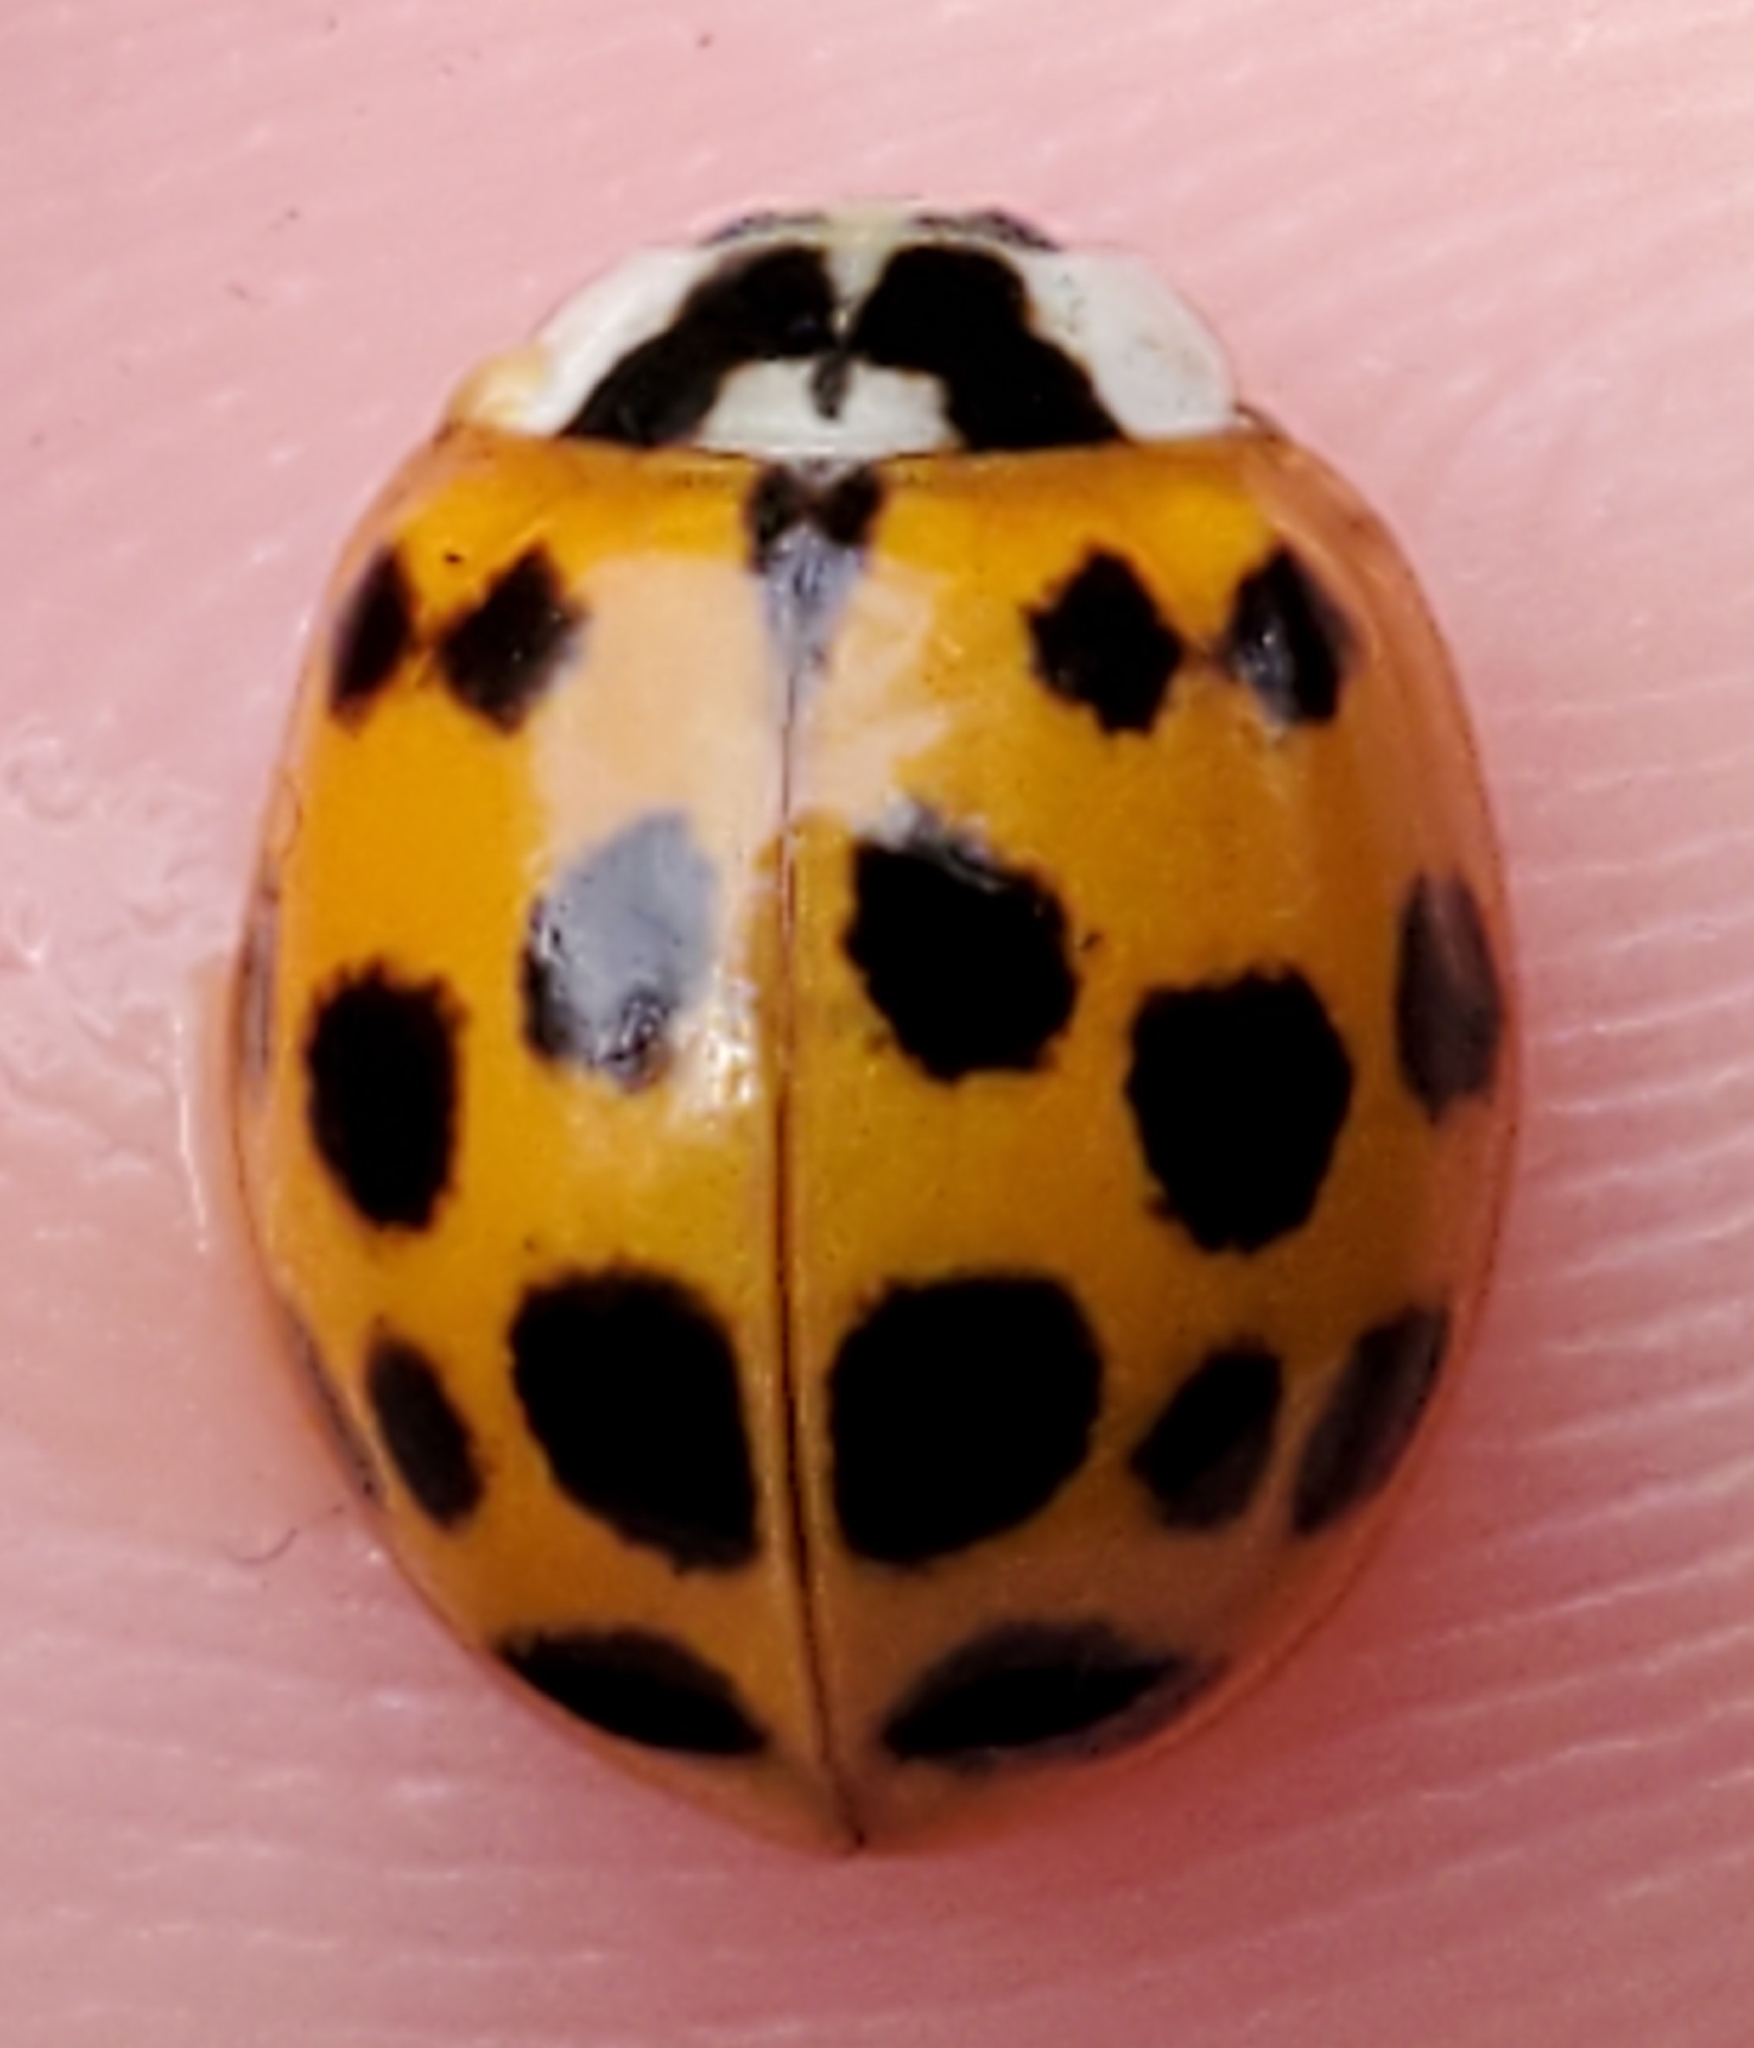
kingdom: Animalia
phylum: Arthropoda
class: Insecta
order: Coleoptera
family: Coccinellidae
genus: Harmonia
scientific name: Harmonia axyridis
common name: Harlequin ladybird
